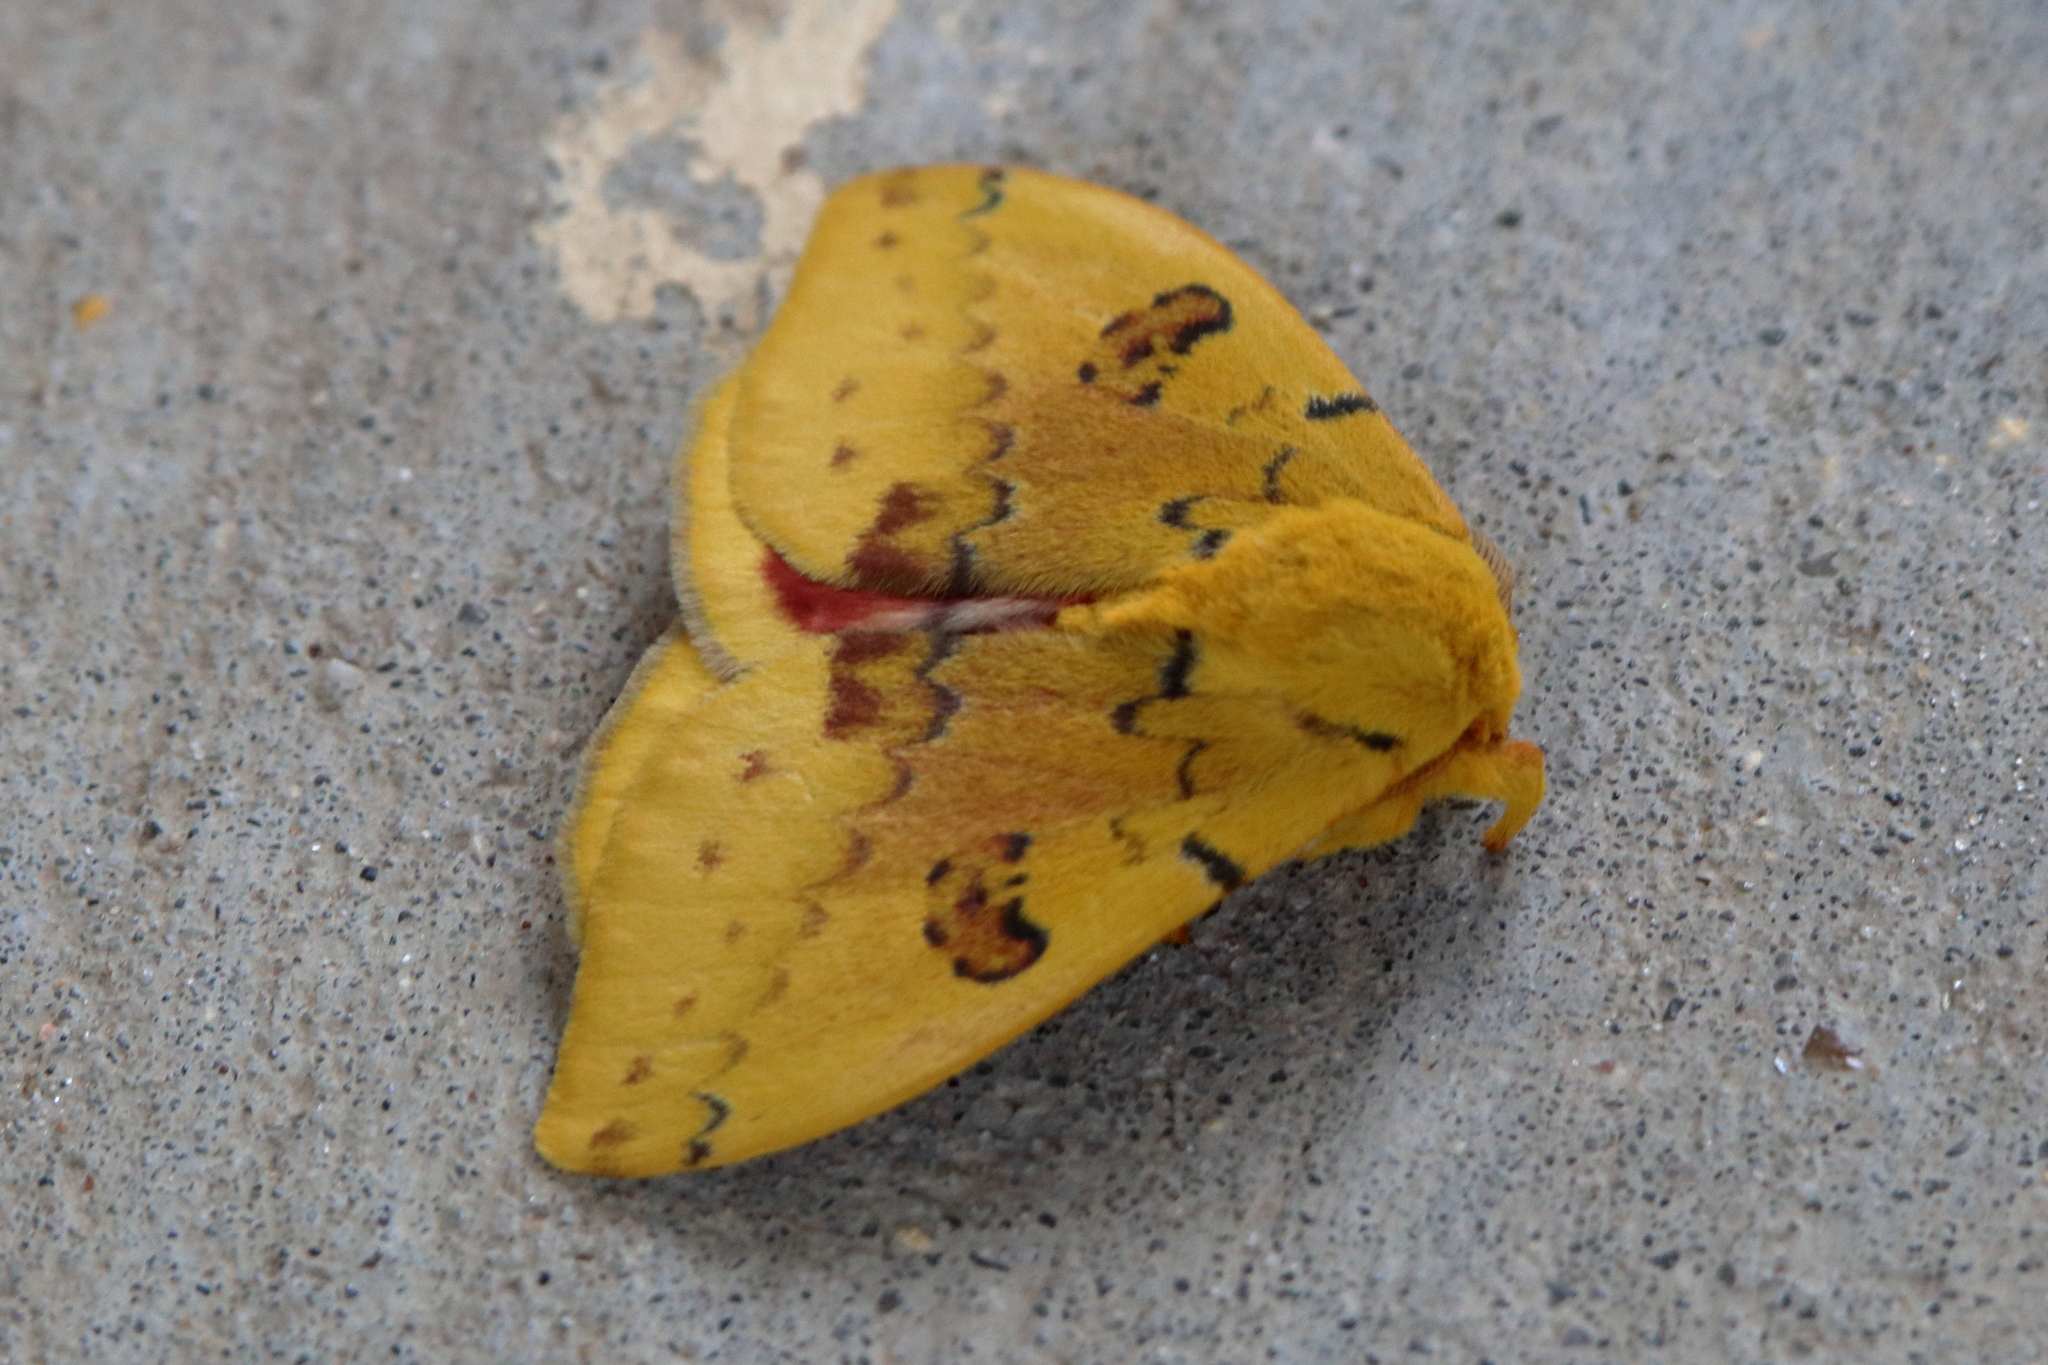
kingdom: Animalia
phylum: Arthropoda
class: Insecta
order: Lepidoptera
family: Saturniidae
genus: Automeris
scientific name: Automeris io
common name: Io moth
